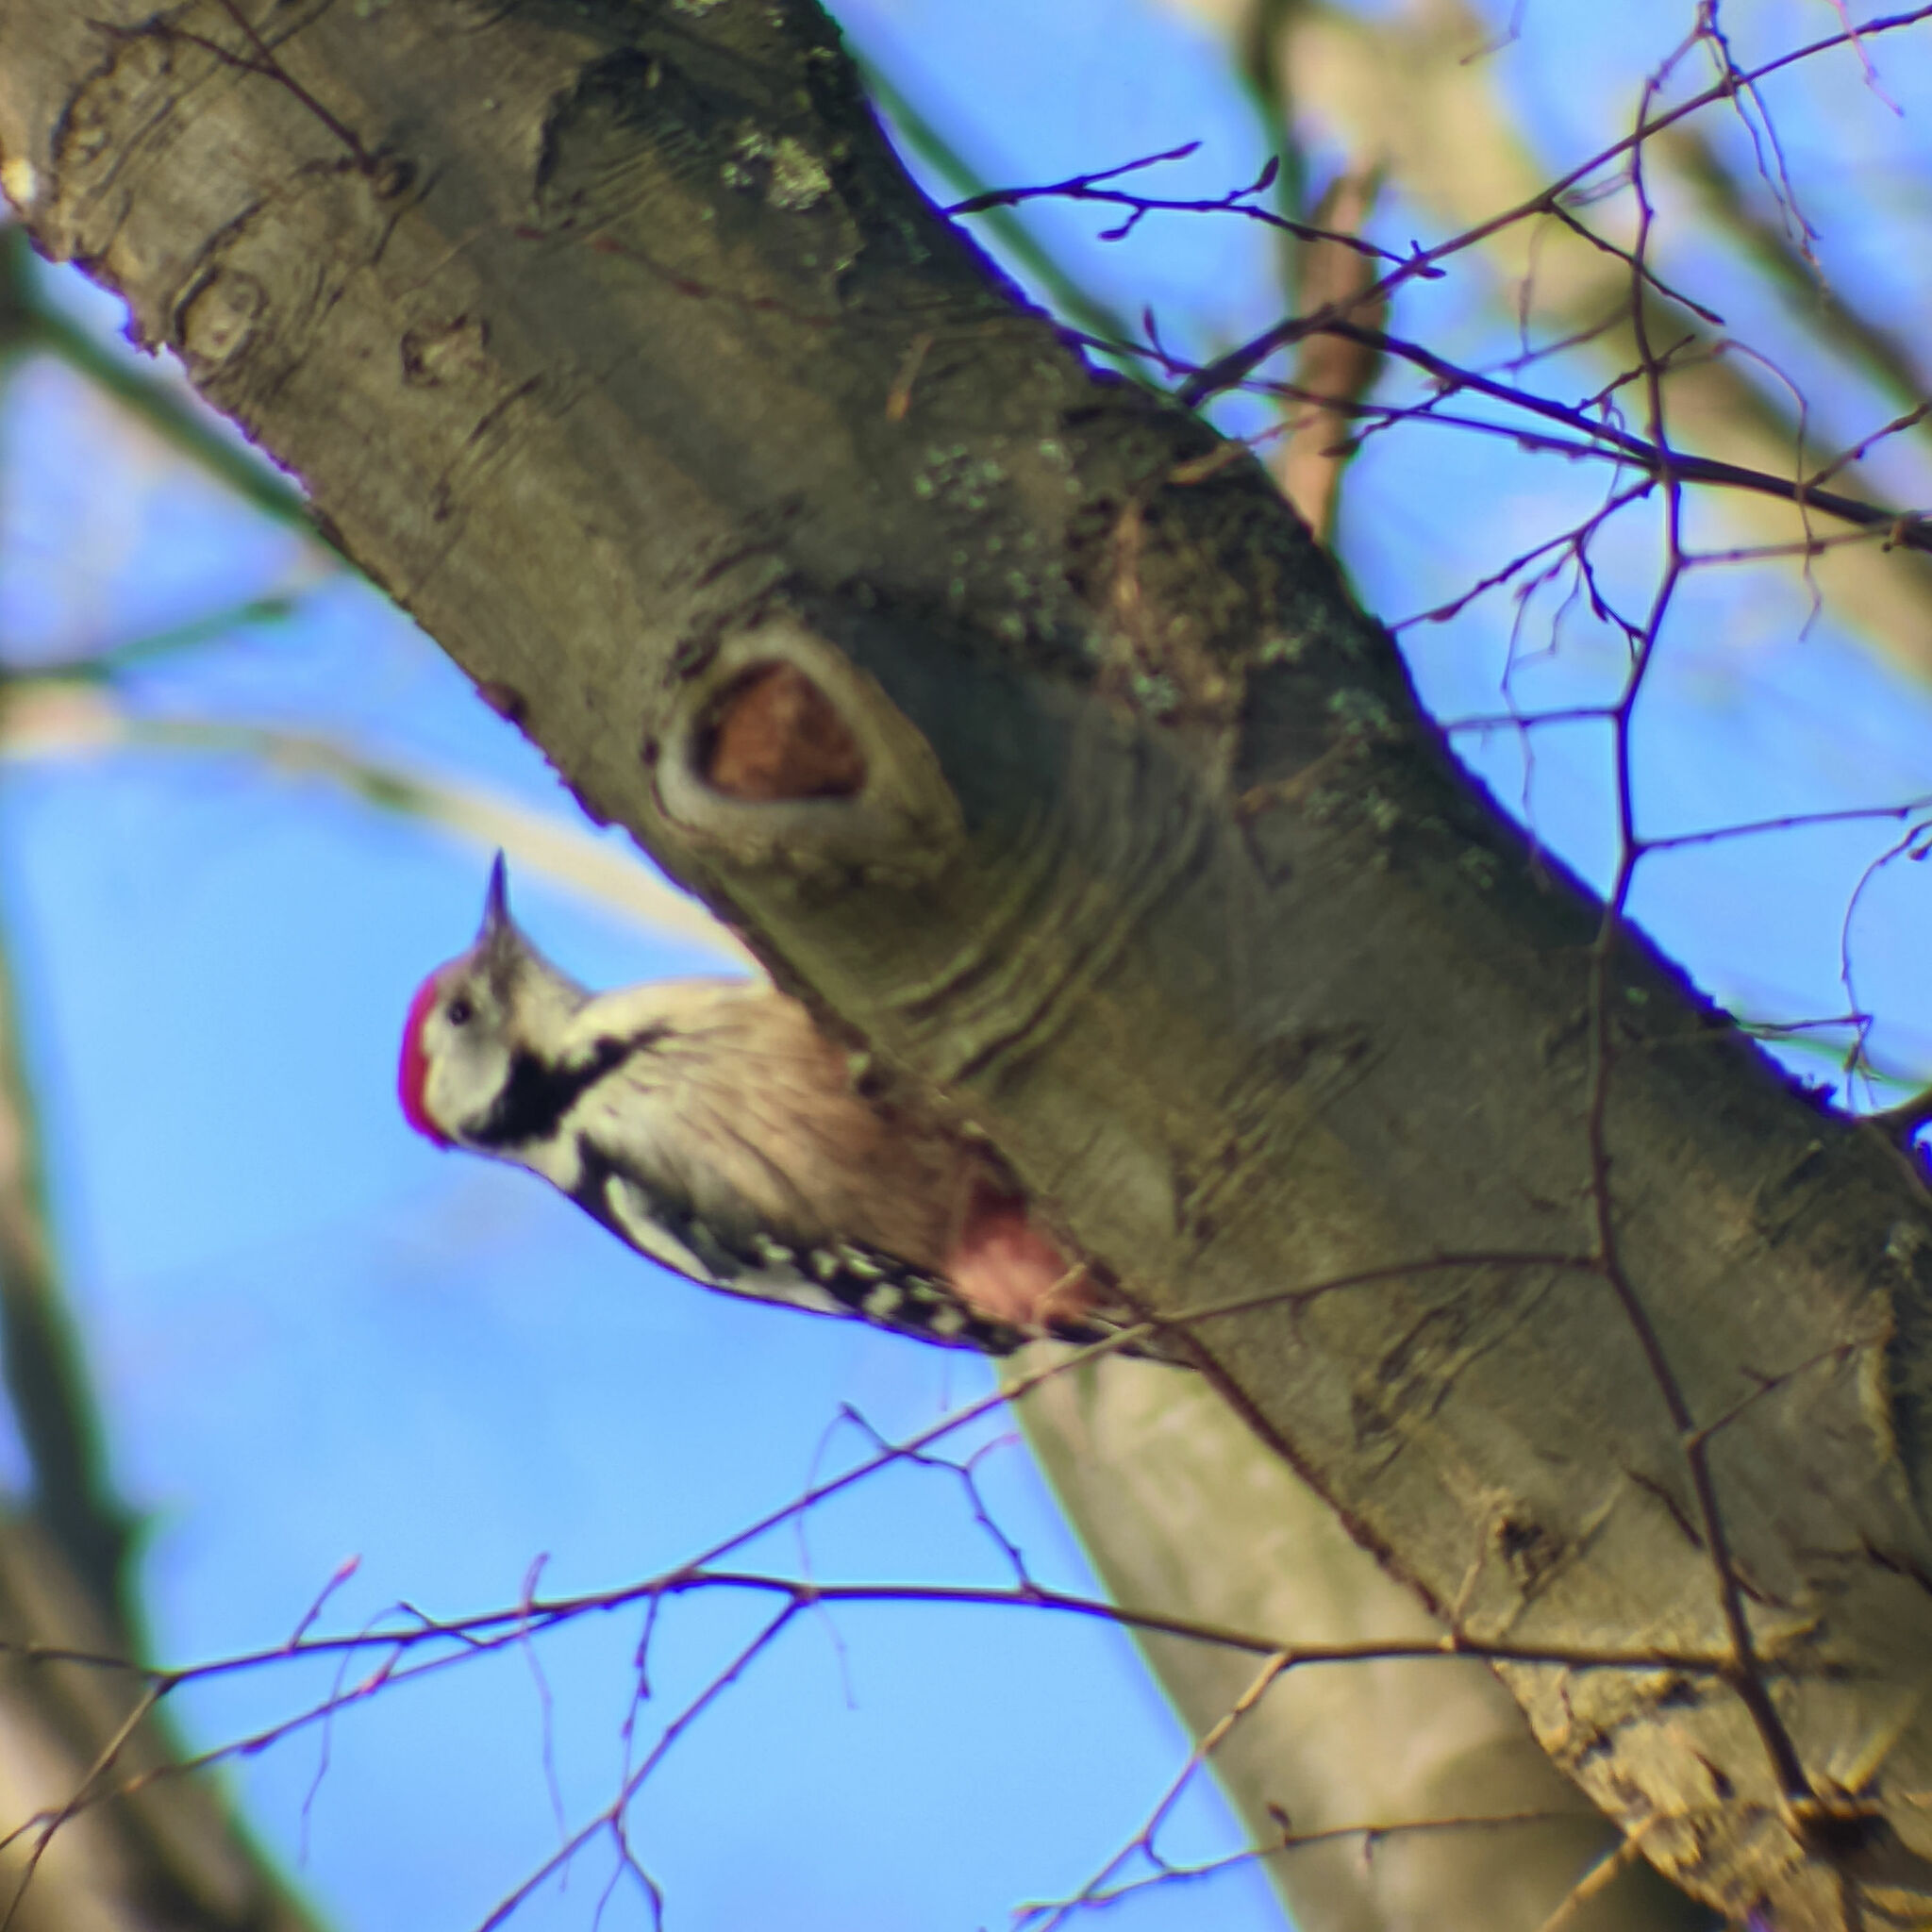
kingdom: Animalia
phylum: Chordata
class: Aves
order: Piciformes
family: Picidae
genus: Dendrocoptes
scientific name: Dendrocoptes medius
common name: Middle spotted woodpecker
